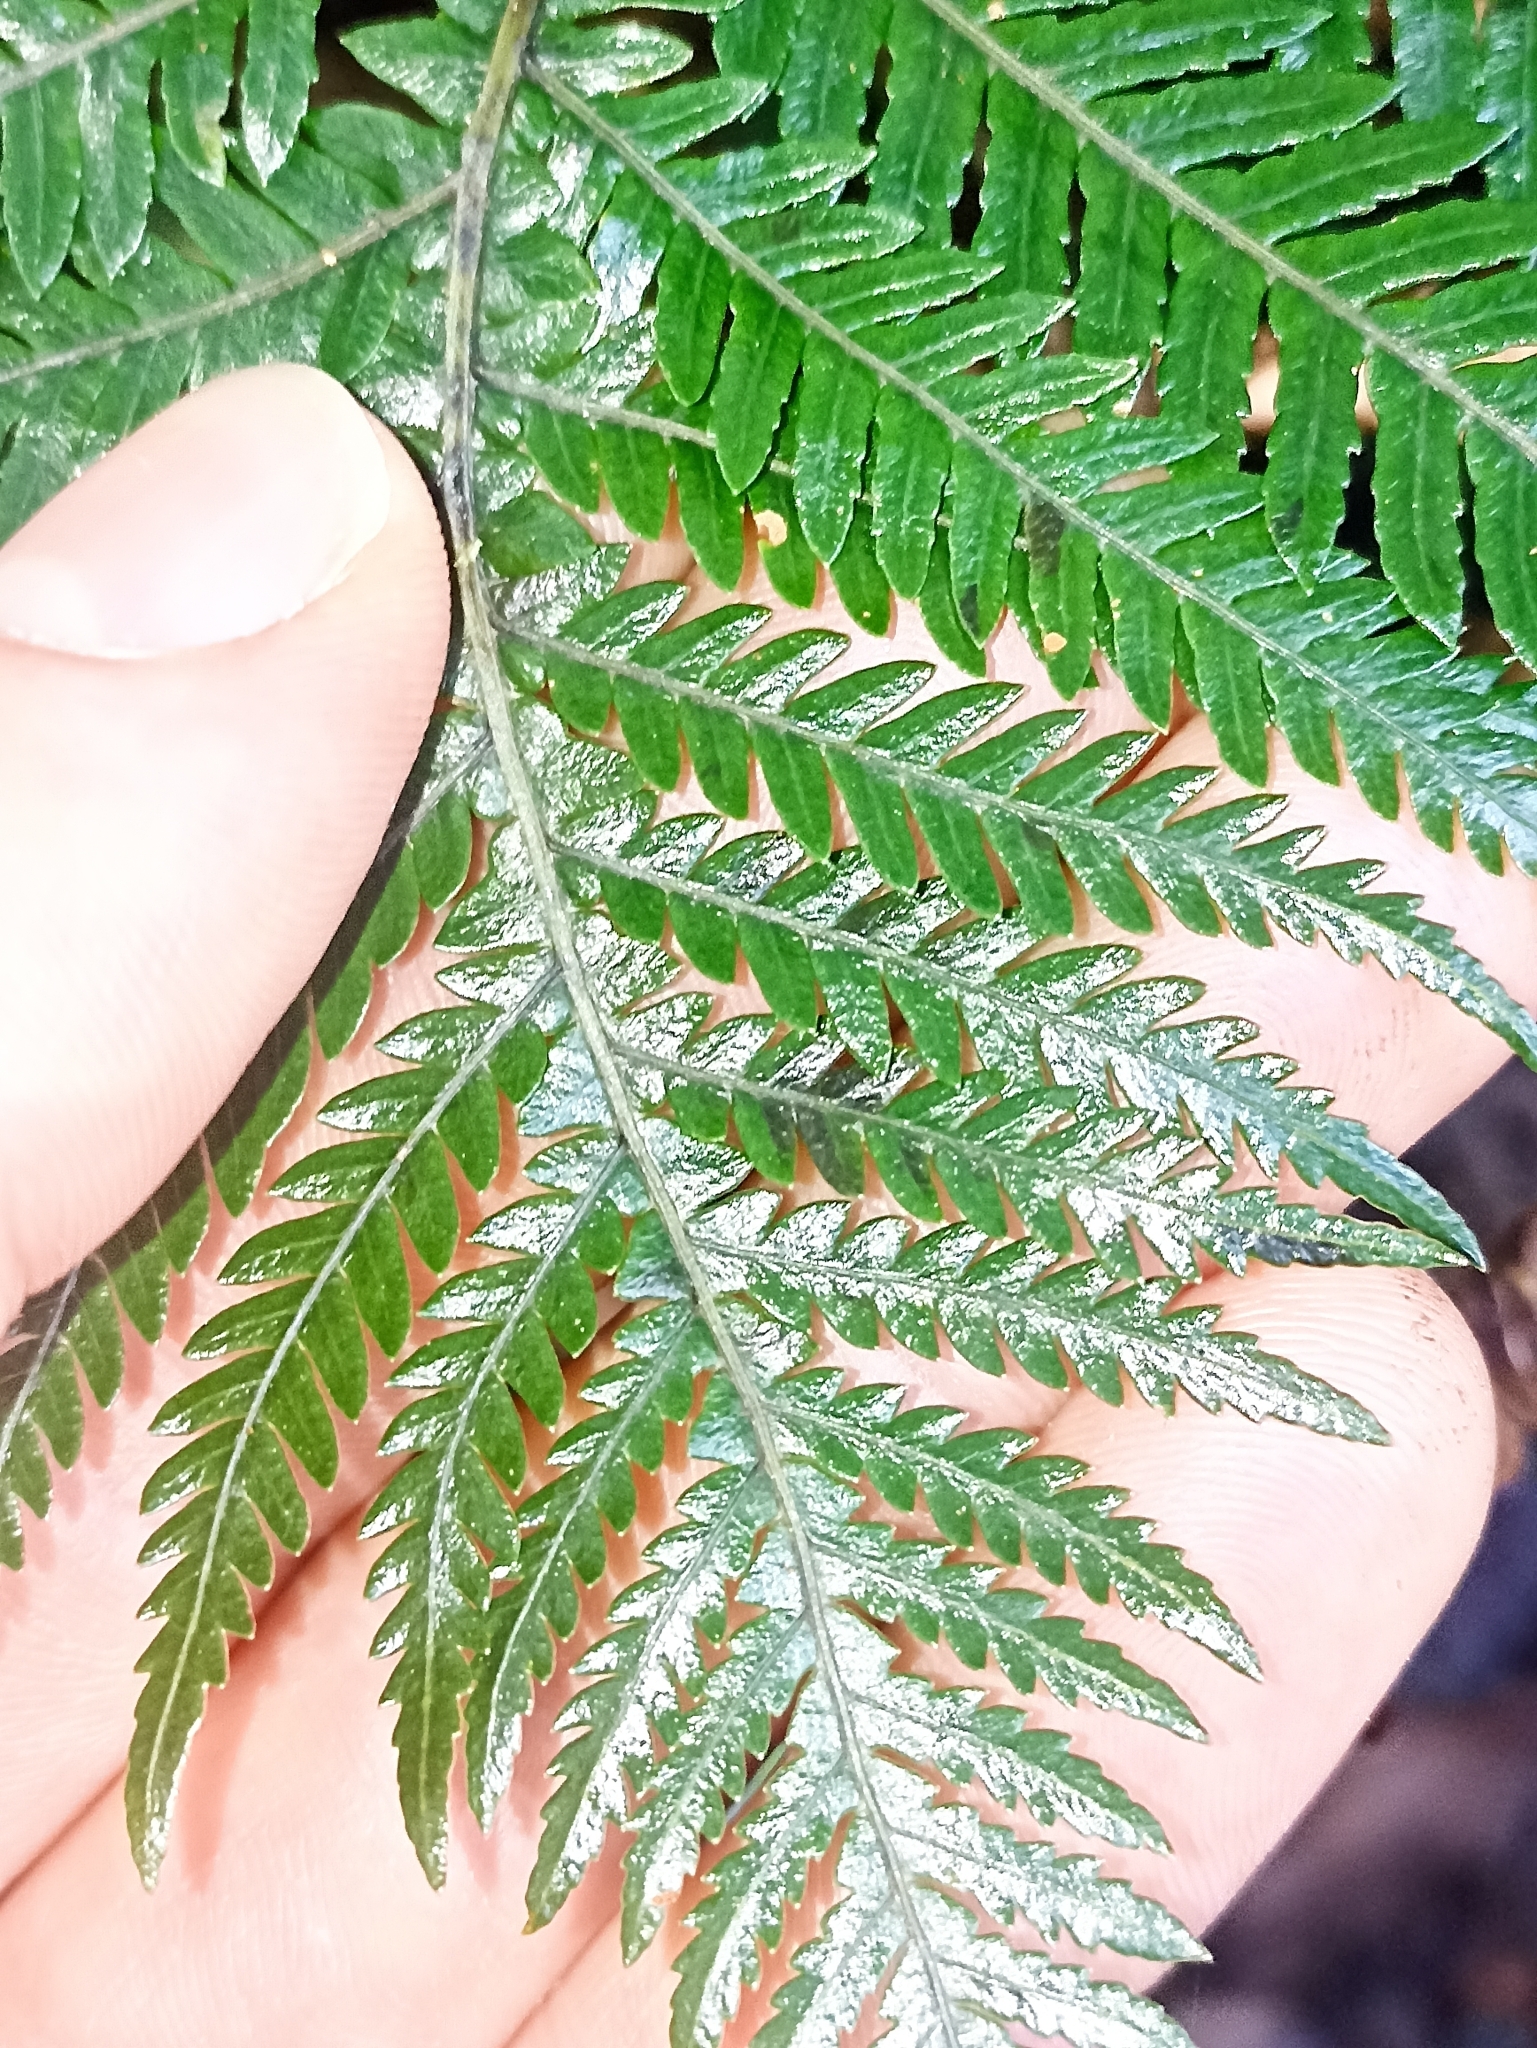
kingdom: Plantae
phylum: Tracheophyta
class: Polypodiopsida
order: Polypodiales
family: Blechnaceae
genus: Diploblechnum
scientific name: Diploblechnum fraseri
